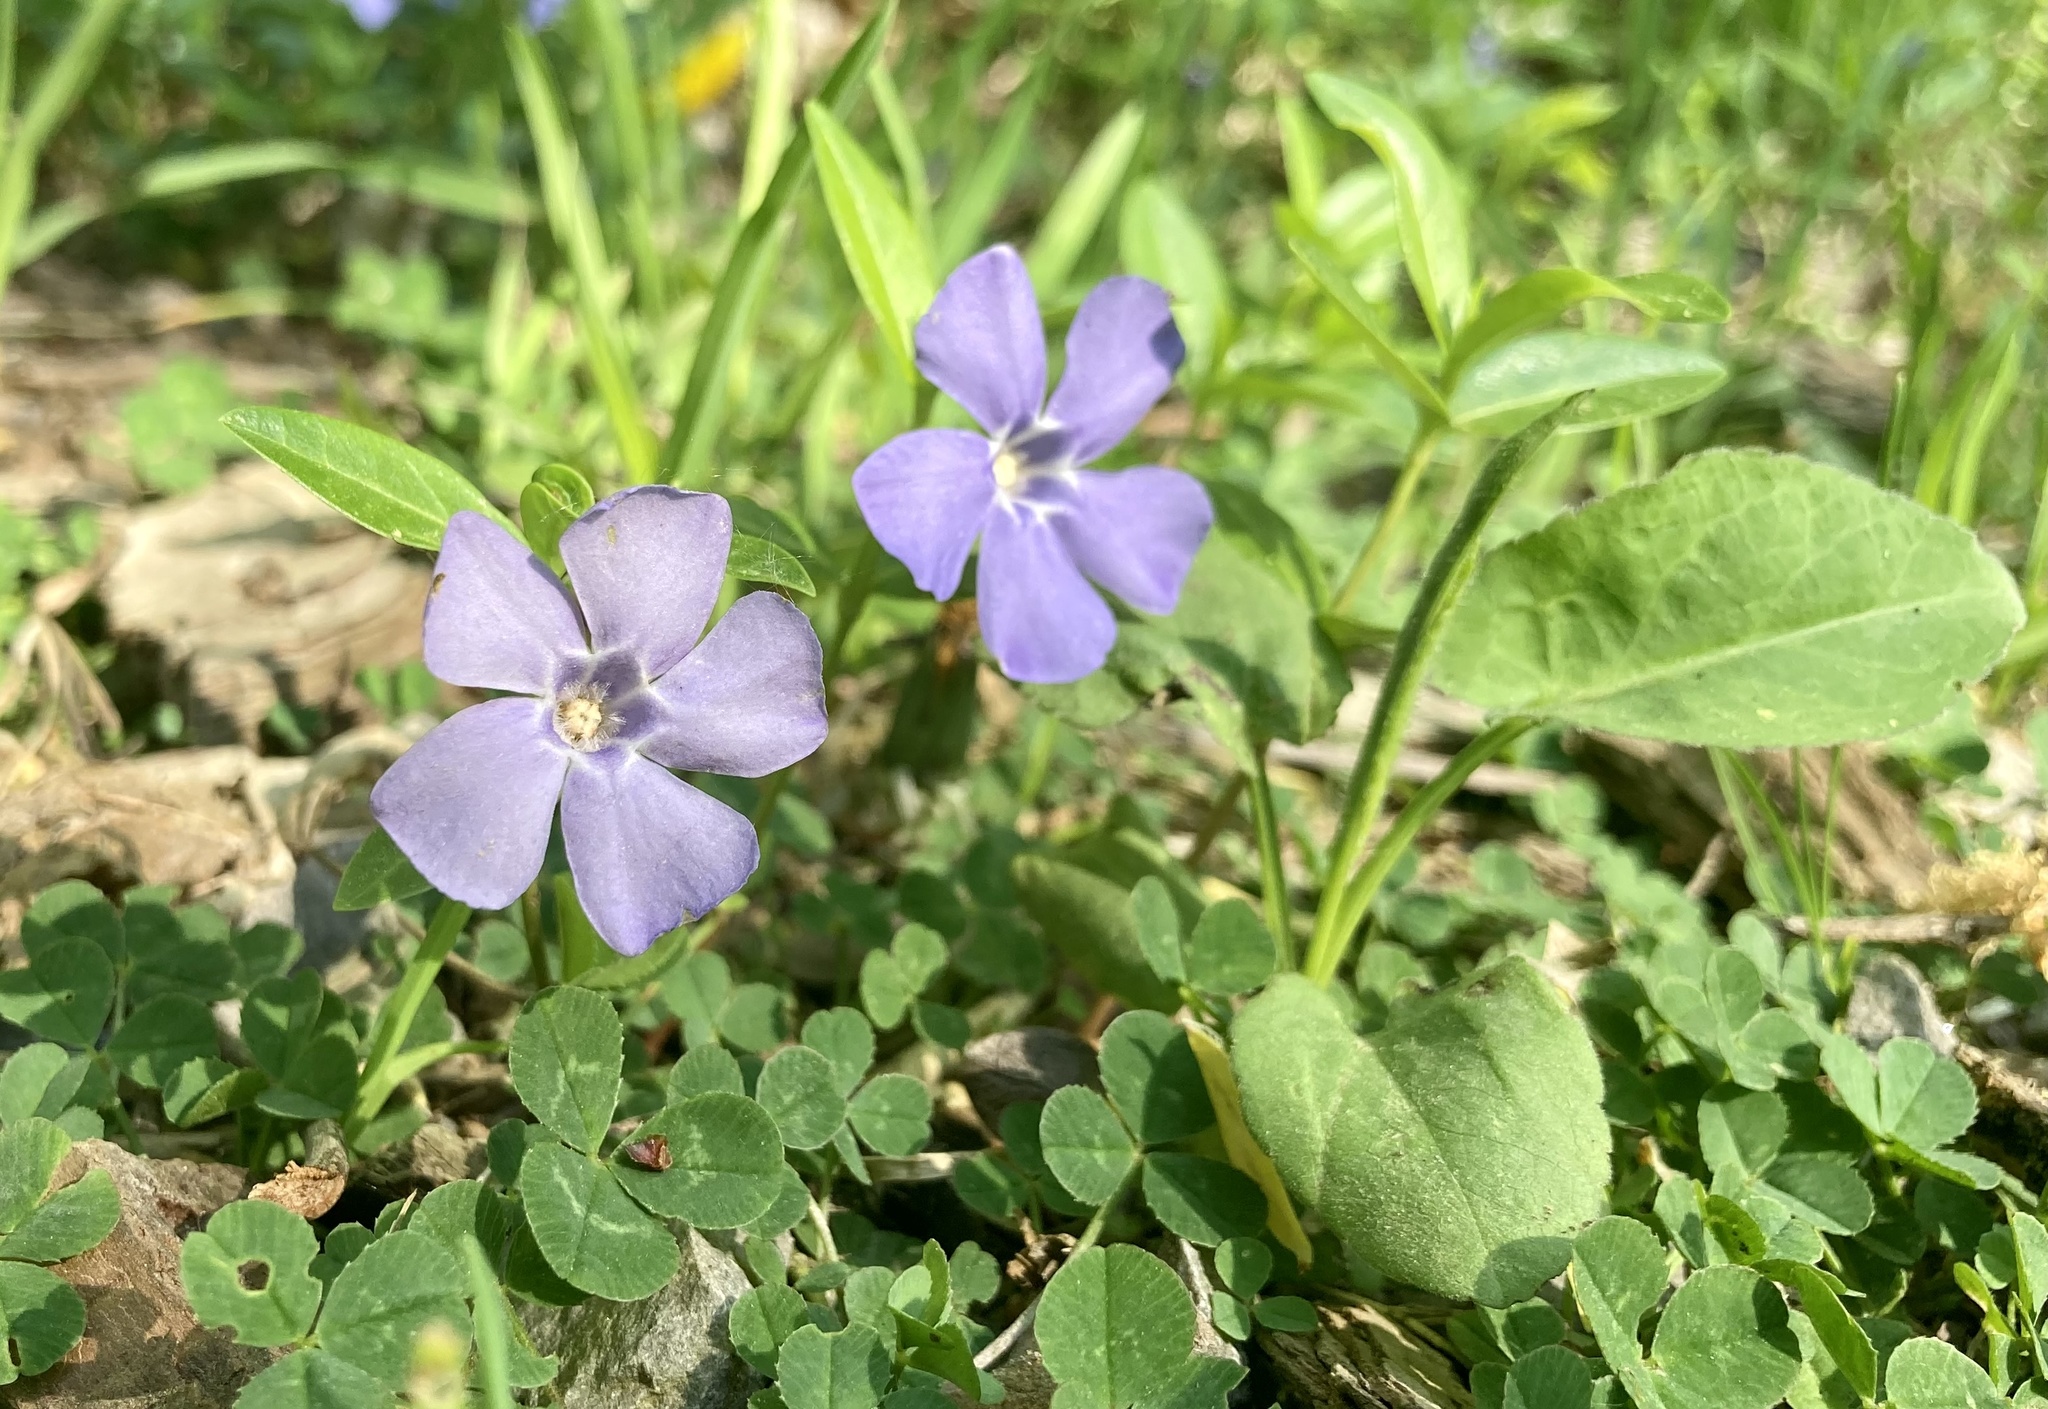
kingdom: Plantae
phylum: Tracheophyta
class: Magnoliopsida
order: Gentianales
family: Apocynaceae
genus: Vinca
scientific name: Vinca minor
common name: Lesser periwinkle
